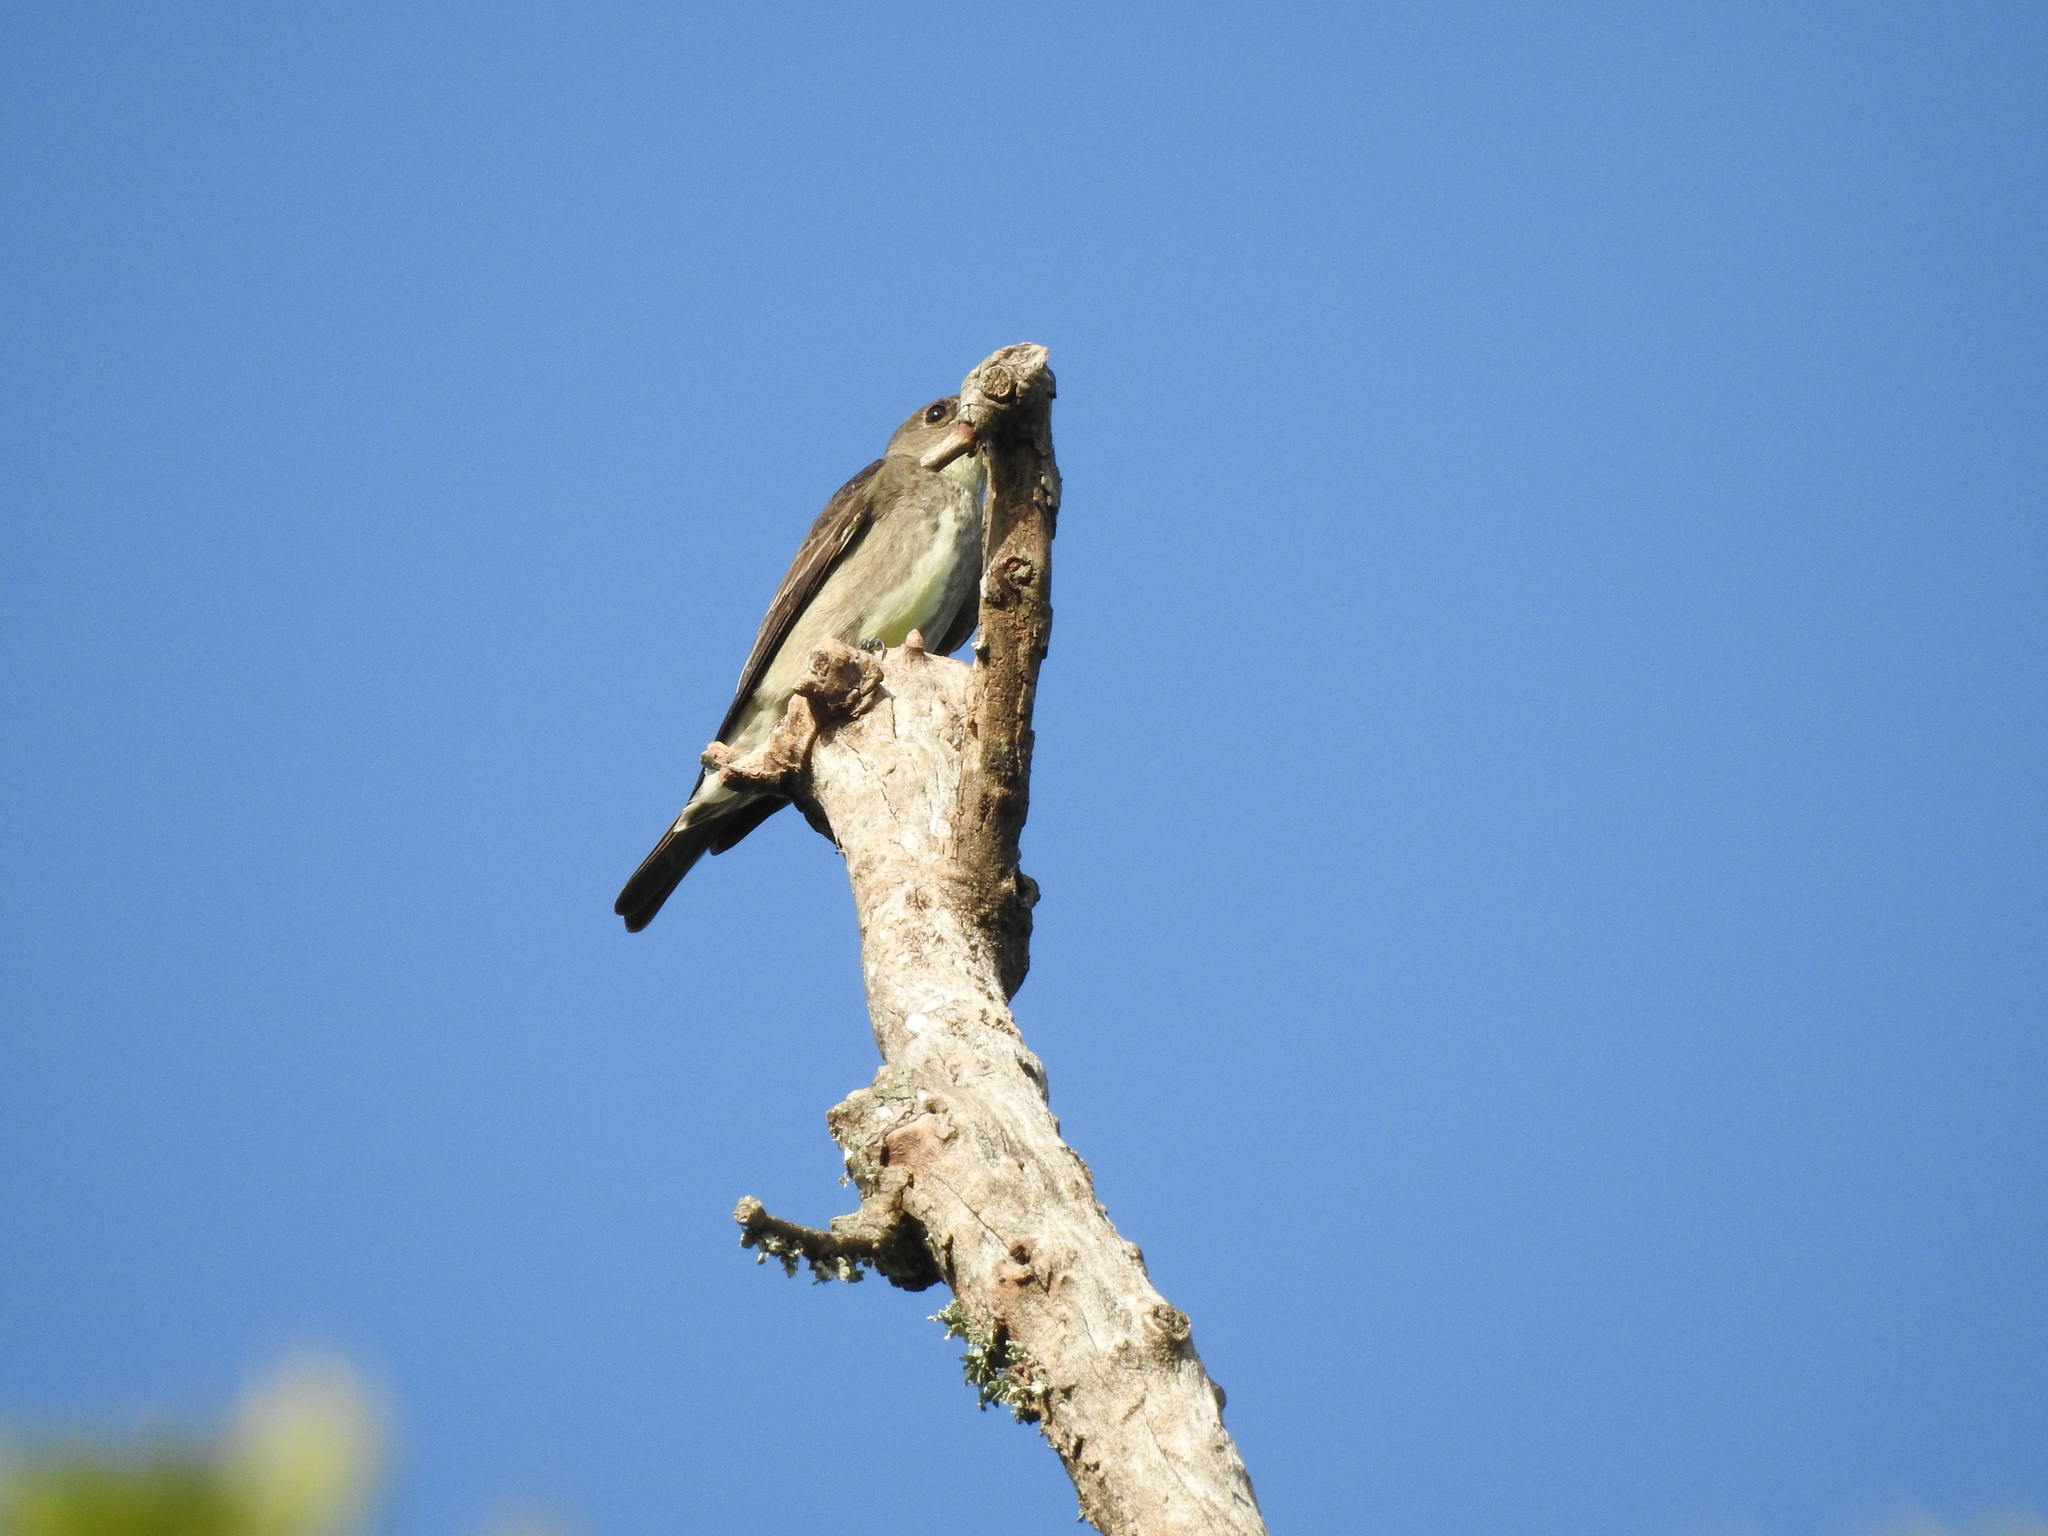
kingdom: Animalia
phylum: Chordata
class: Aves
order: Passeriformes
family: Tyrannidae
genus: Contopus
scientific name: Contopus cooperi
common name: Olive-sided flycatcher
